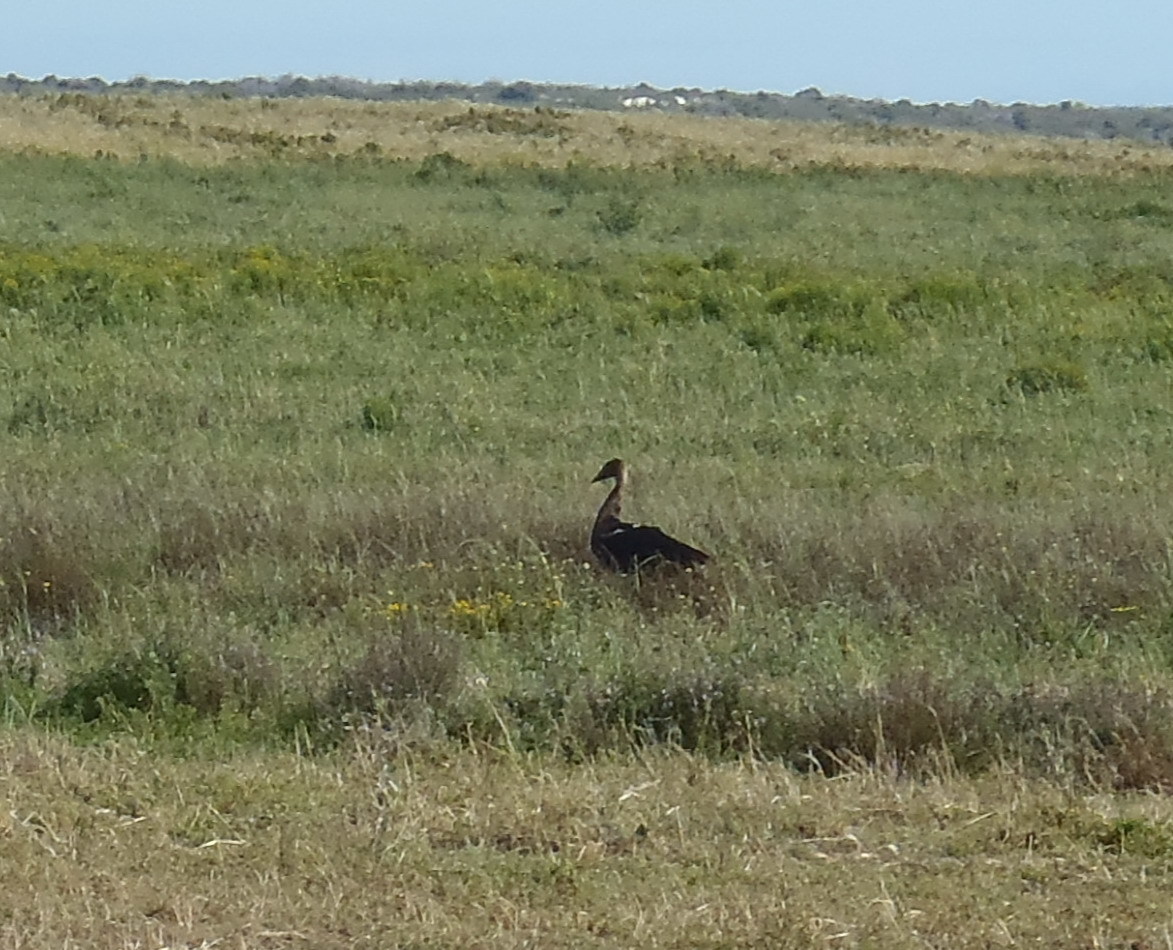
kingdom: Animalia
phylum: Chordata
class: Aves
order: Anseriformes
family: Anatidae
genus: Plectropterus
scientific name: Plectropterus gambensis
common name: Spur-winged goose
